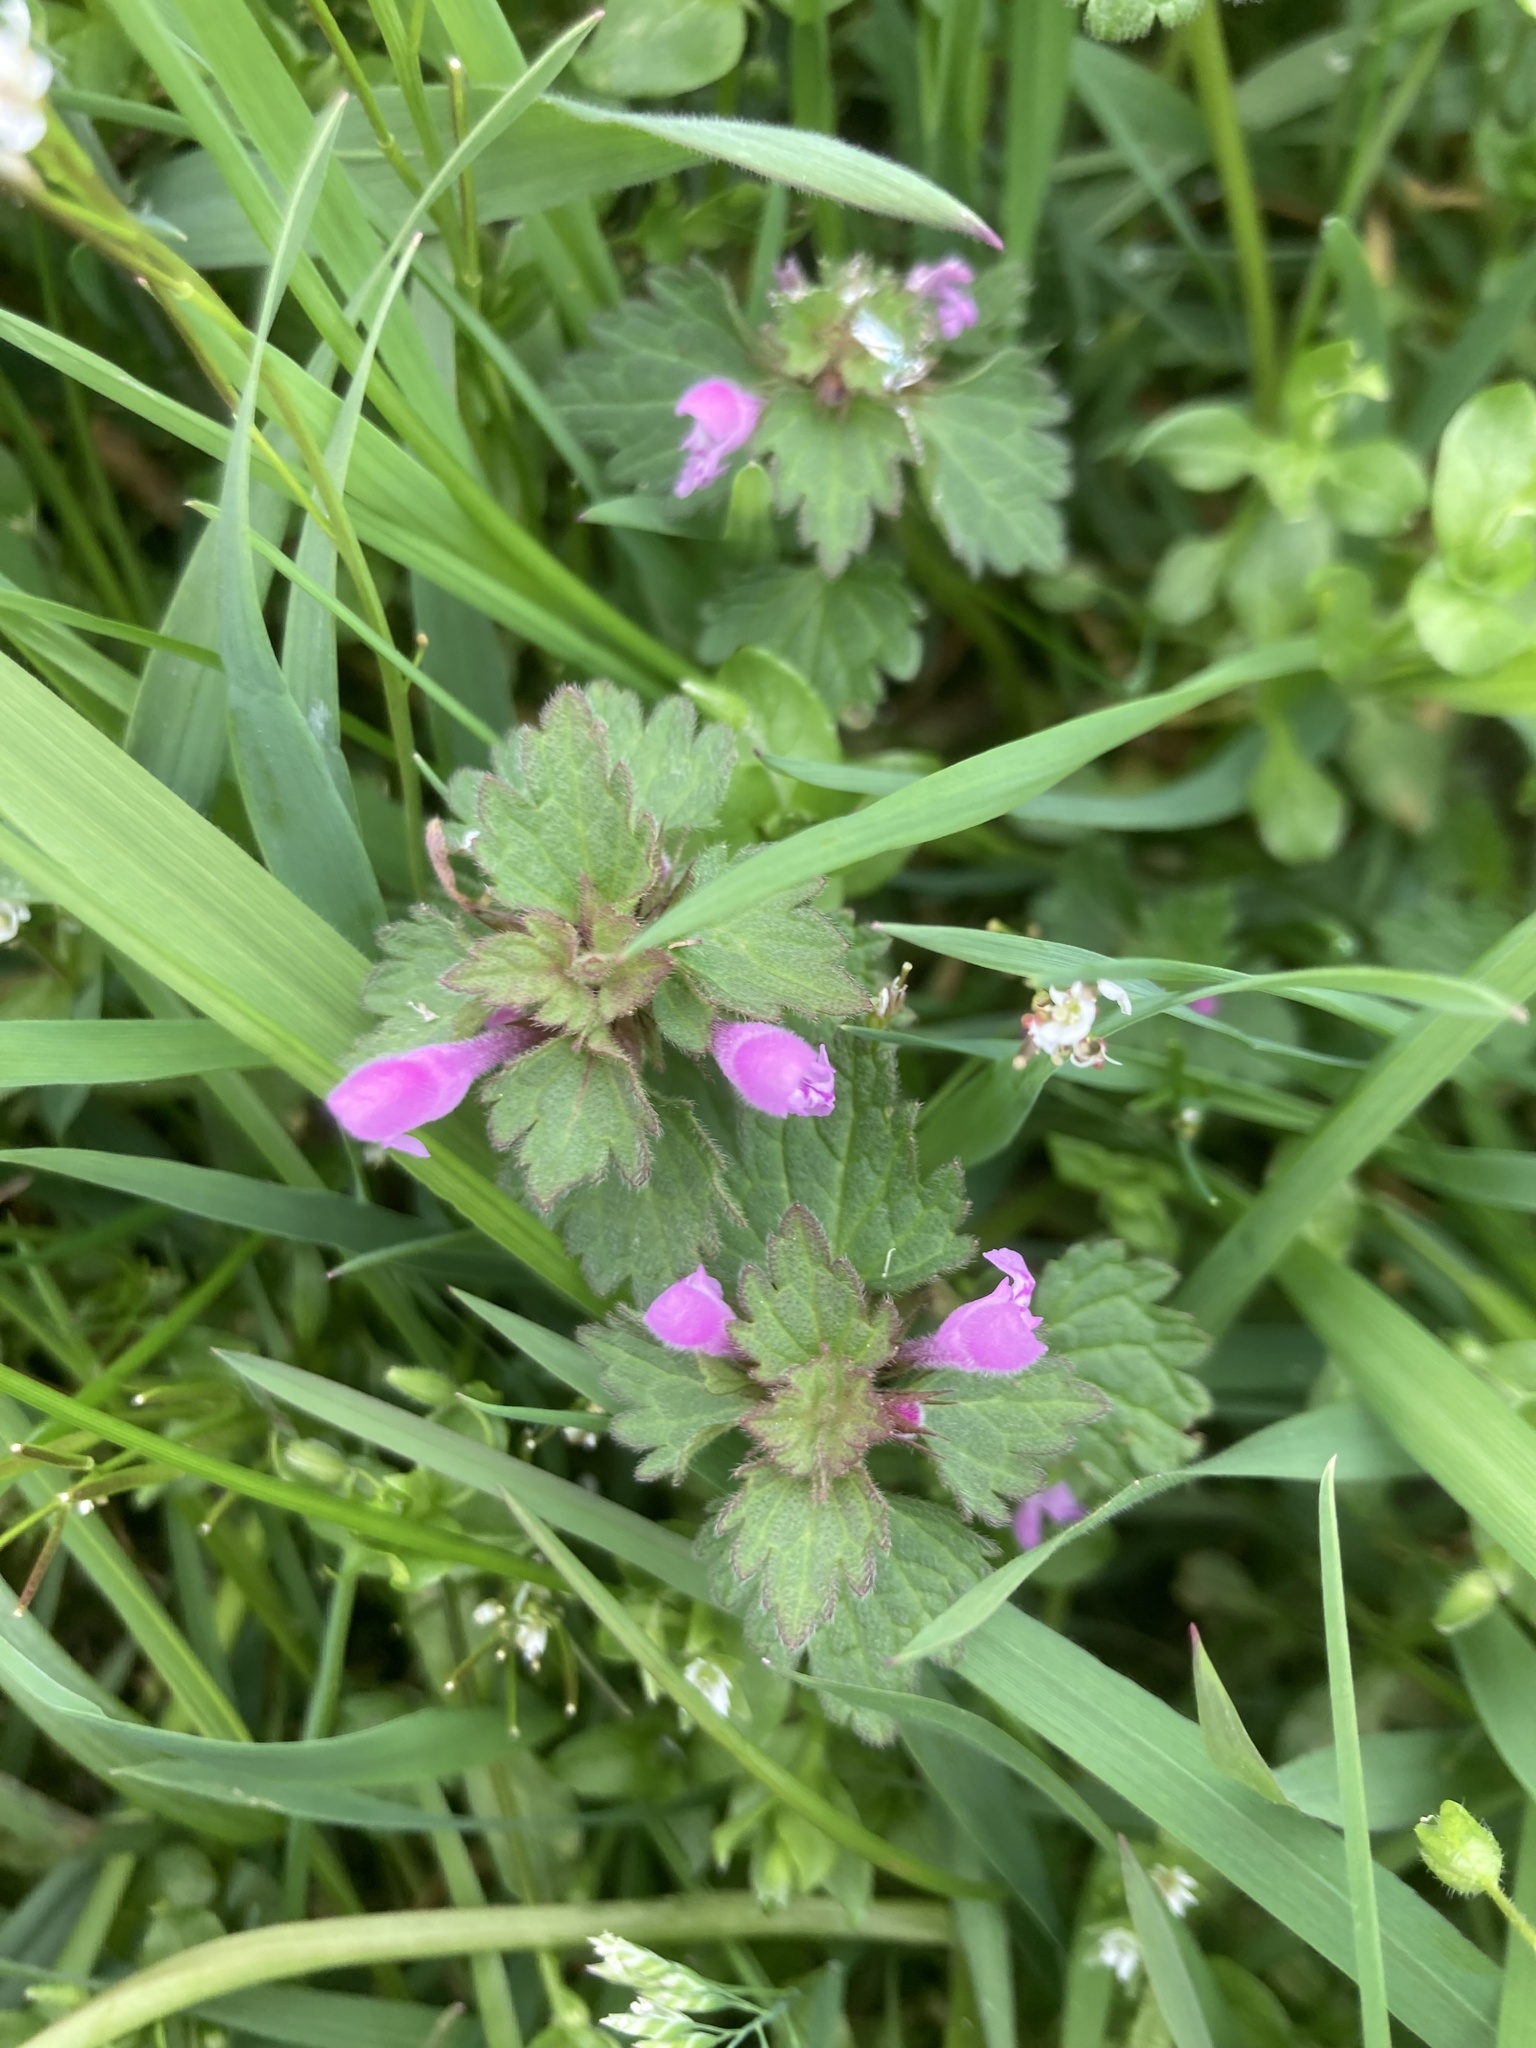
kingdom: Plantae
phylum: Tracheophyta
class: Magnoliopsida
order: Lamiales
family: Lamiaceae
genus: Lamium
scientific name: Lamium hybridum
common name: Cut-leaved dead-nettle
